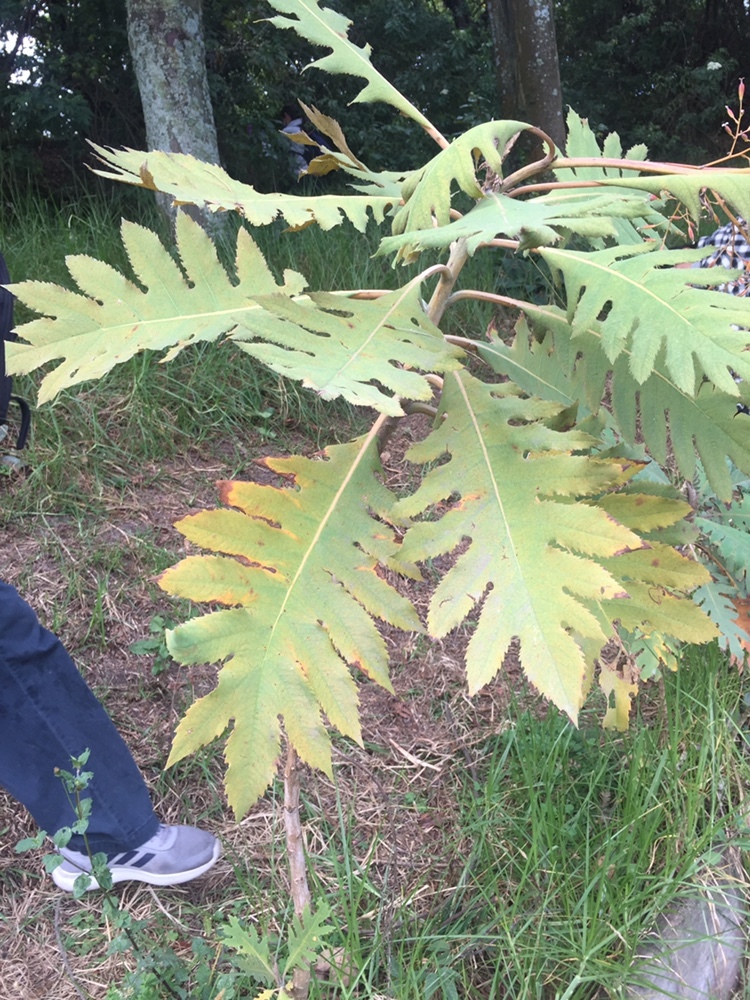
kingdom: Plantae
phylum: Tracheophyta
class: Magnoliopsida
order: Ranunculales
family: Papaveraceae
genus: Bocconia
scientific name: Bocconia frutescens
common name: Tree poppy
